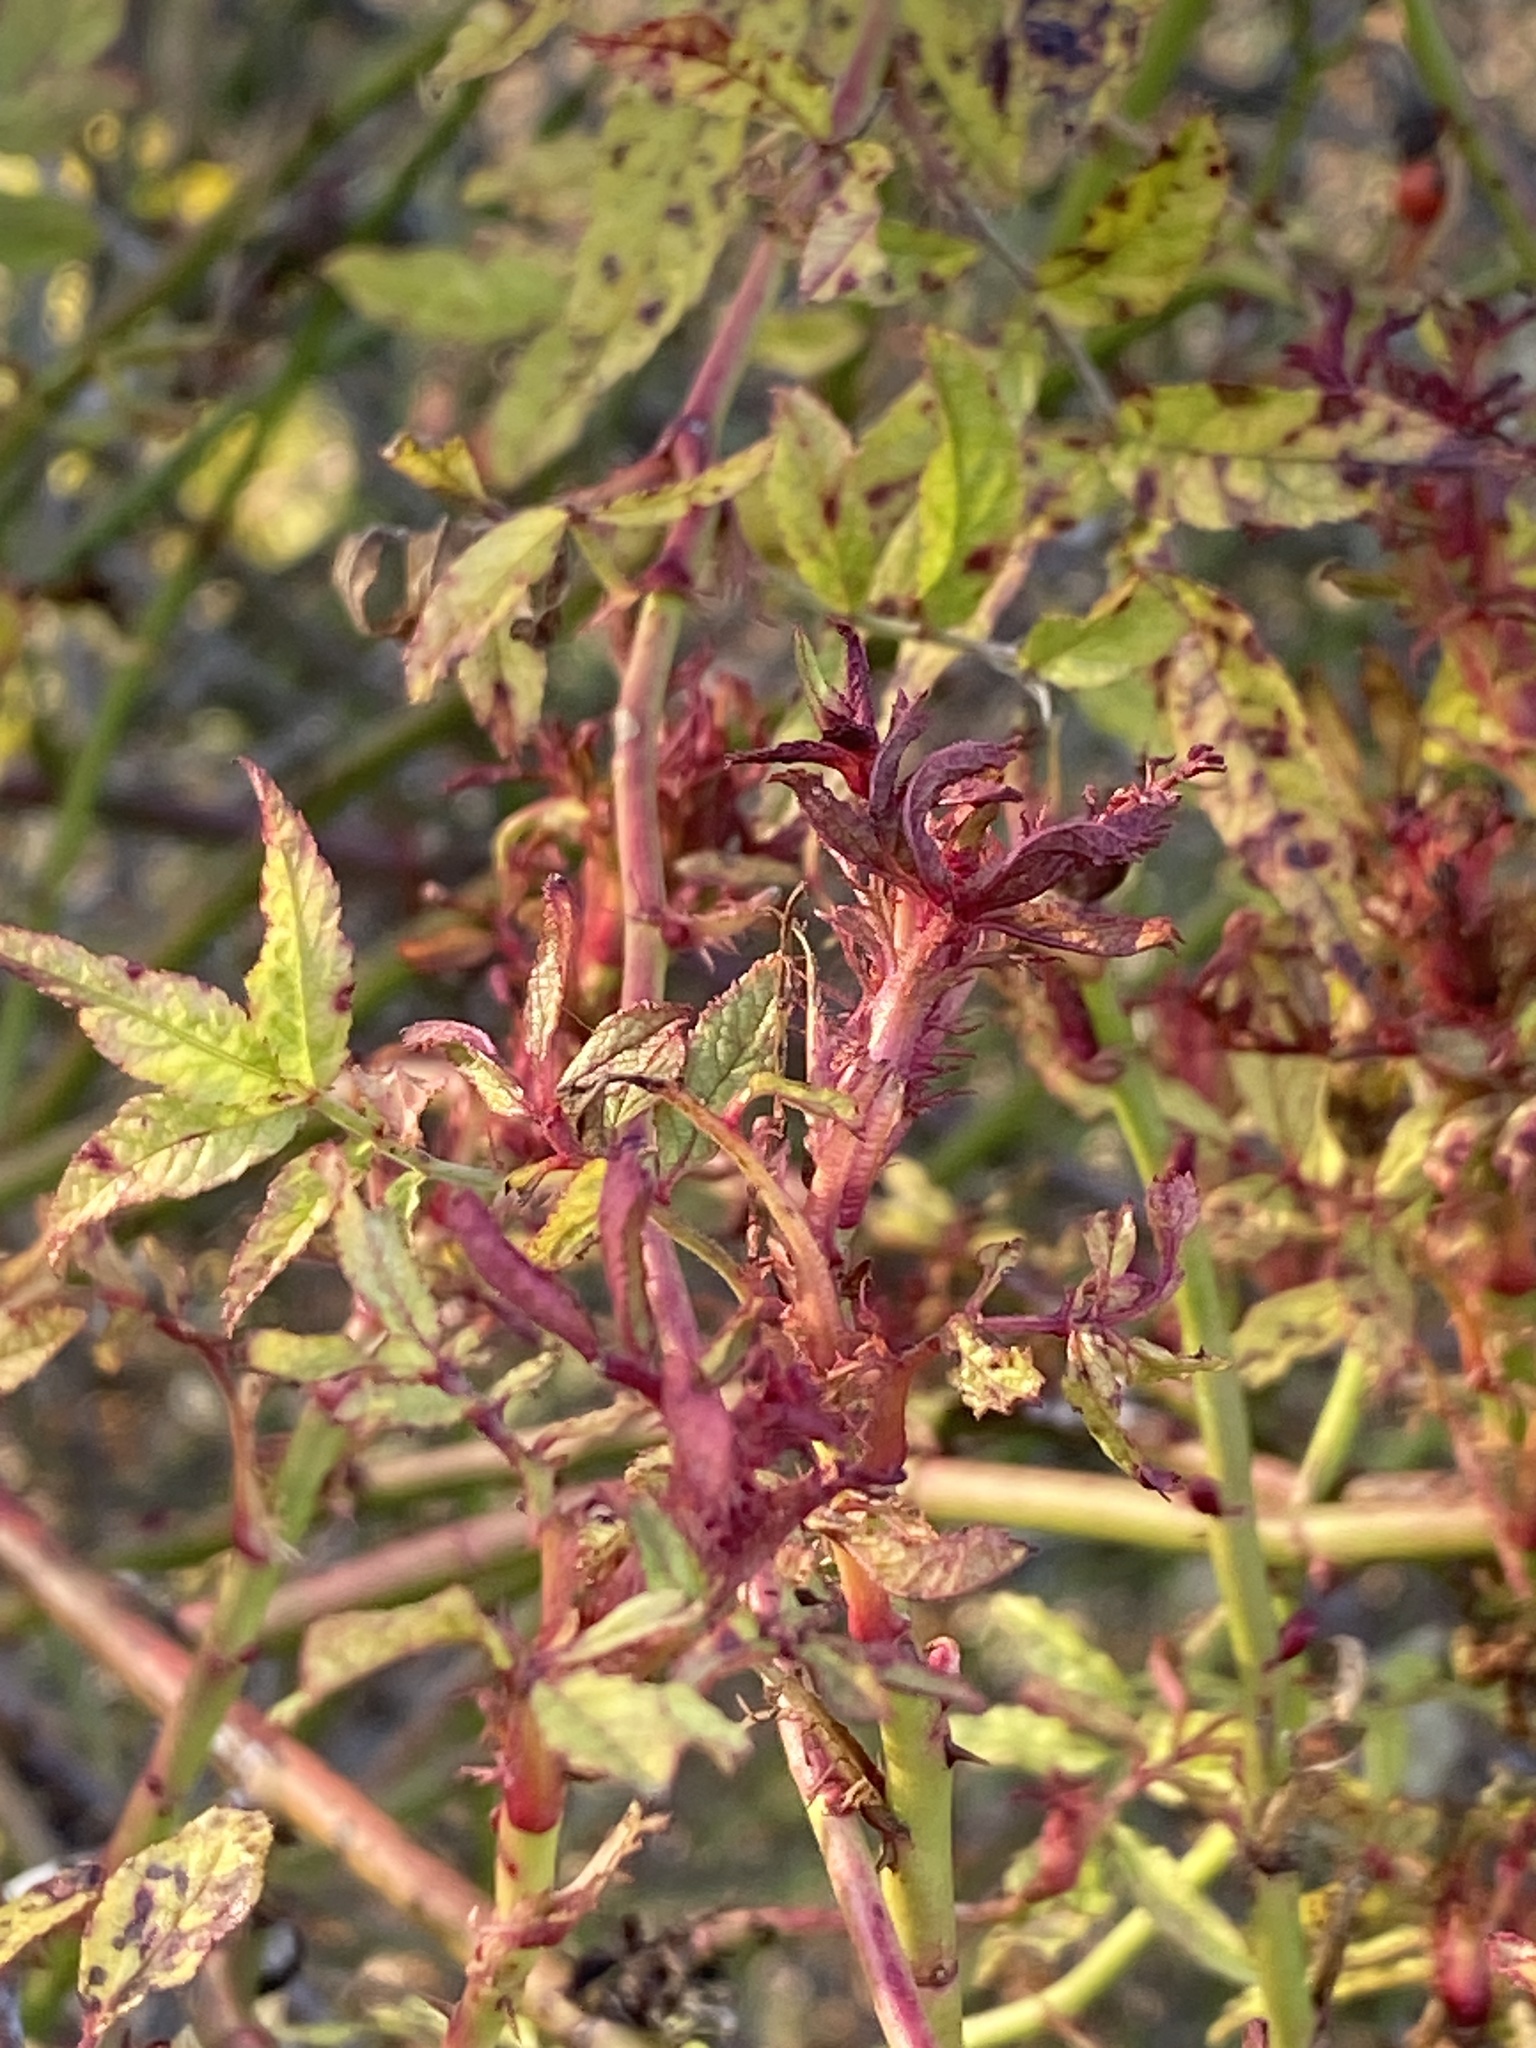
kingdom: Viruses
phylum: Negarnaviricota
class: Ellioviricetes
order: Bunyavirales
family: Fimoviridae
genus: Emaravirus
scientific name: Emaravirus rosae
